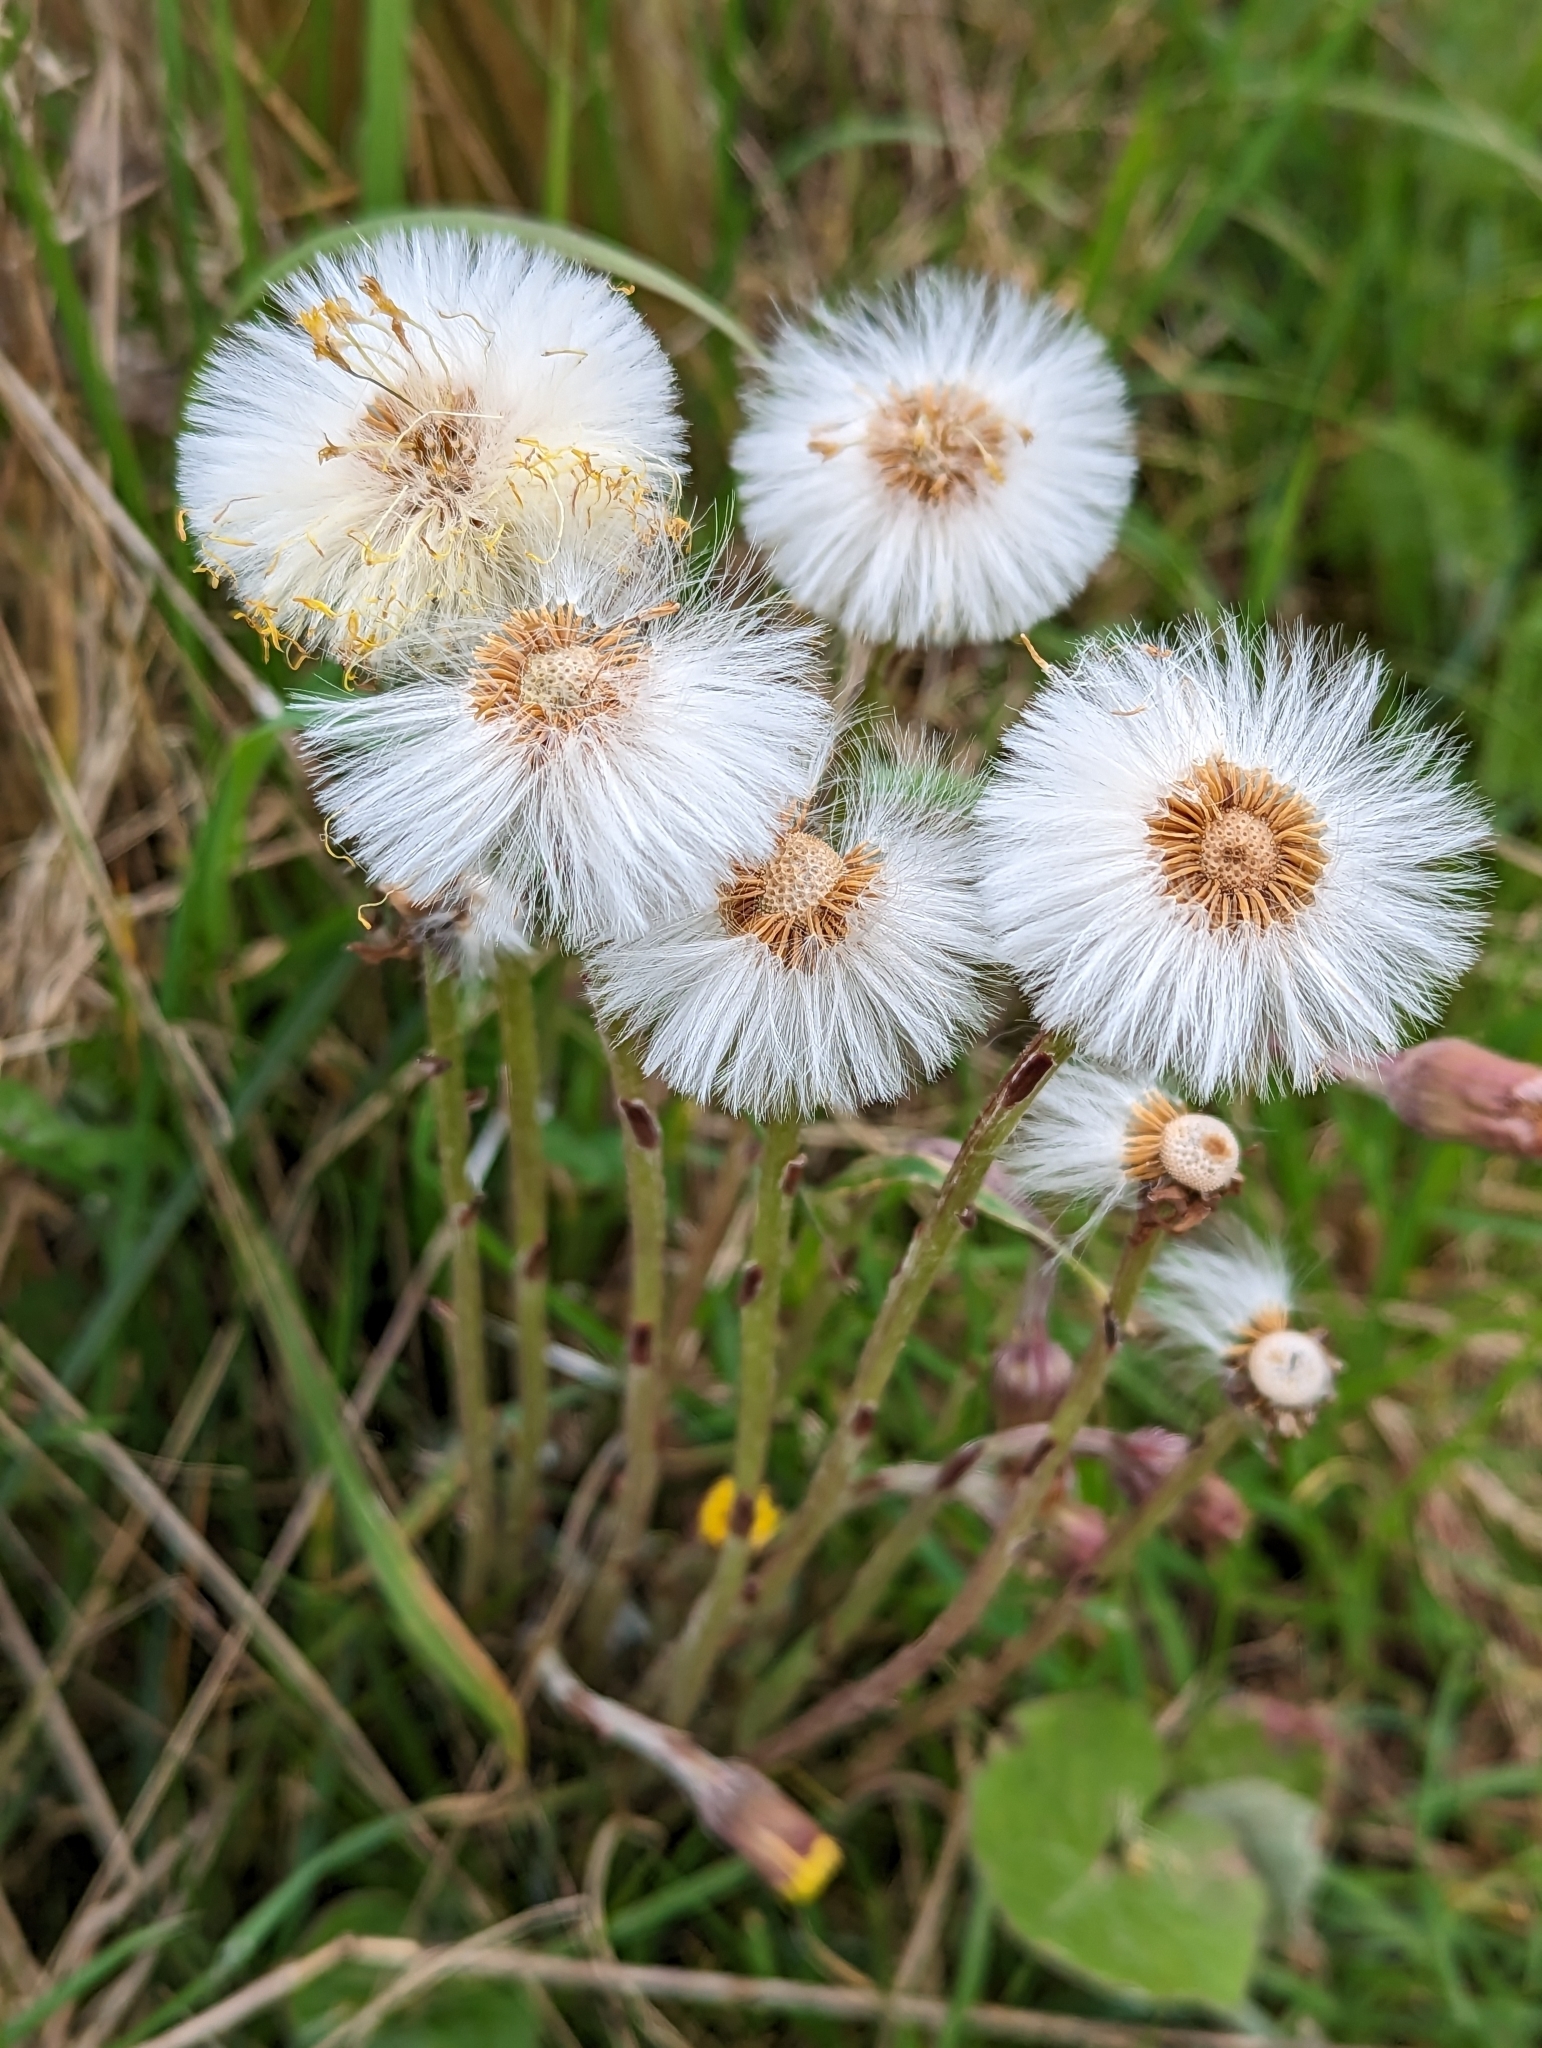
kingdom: Plantae
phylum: Tracheophyta
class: Magnoliopsida
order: Asterales
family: Asteraceae
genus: Tussilago
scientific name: Tussilago farfara
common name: Coltsfoot
